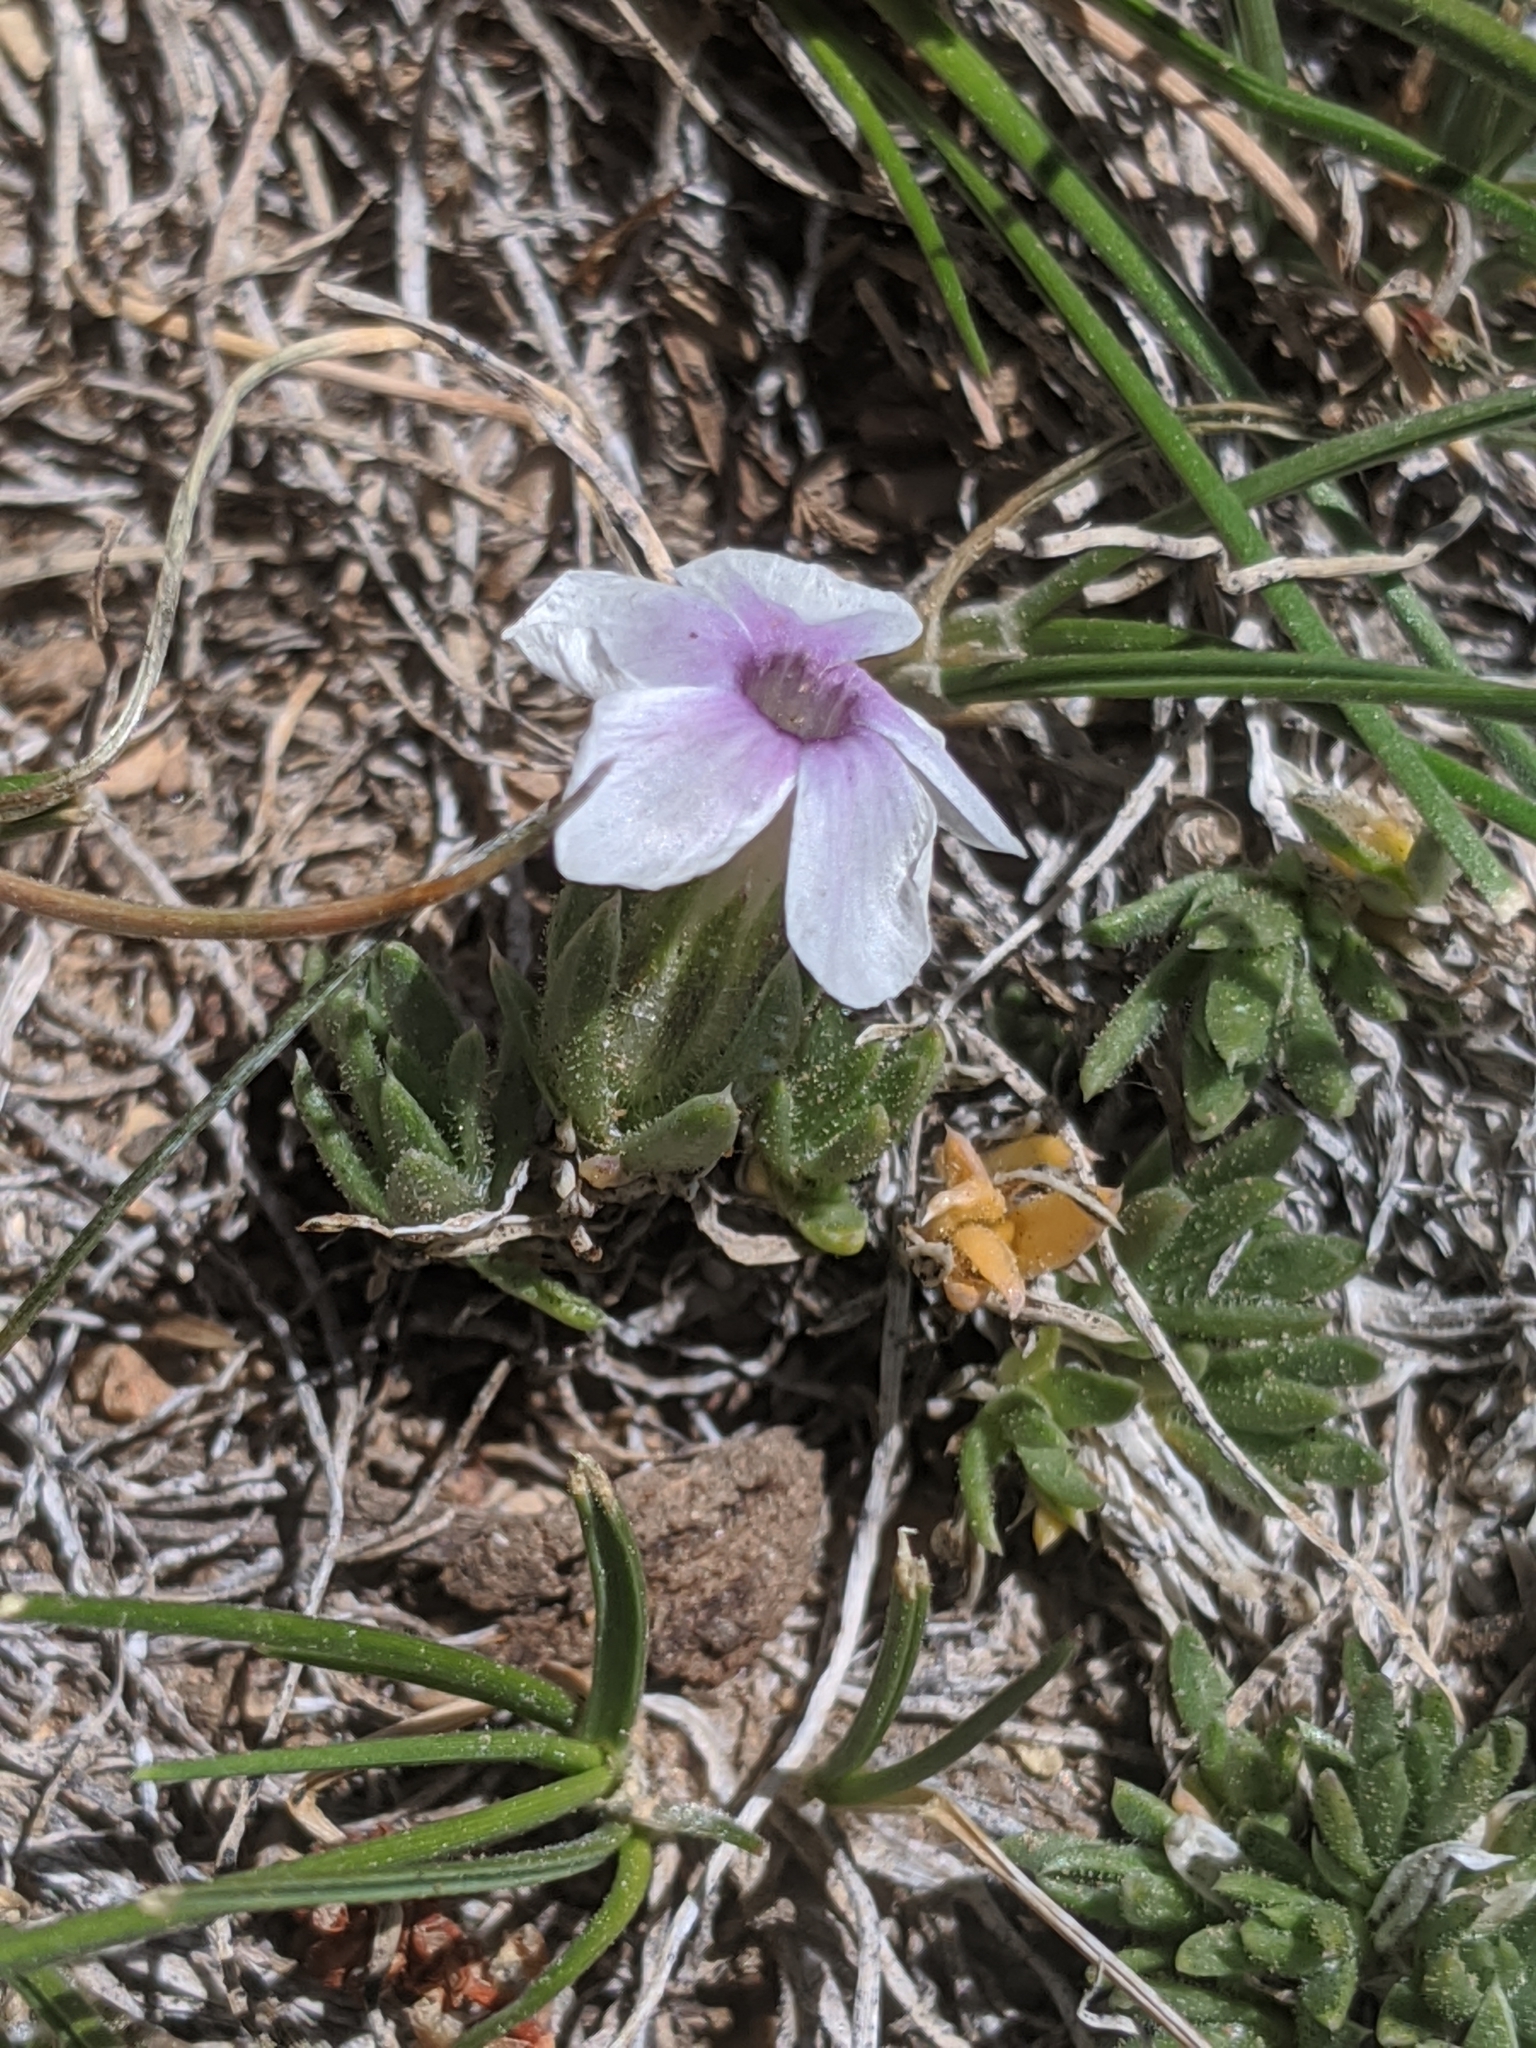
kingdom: Plantae
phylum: Tracheophyta
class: Magnoliopsida
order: Ericales
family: Polemoniaceae
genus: Phlox
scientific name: Phlox condensata
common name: Compact phlox
